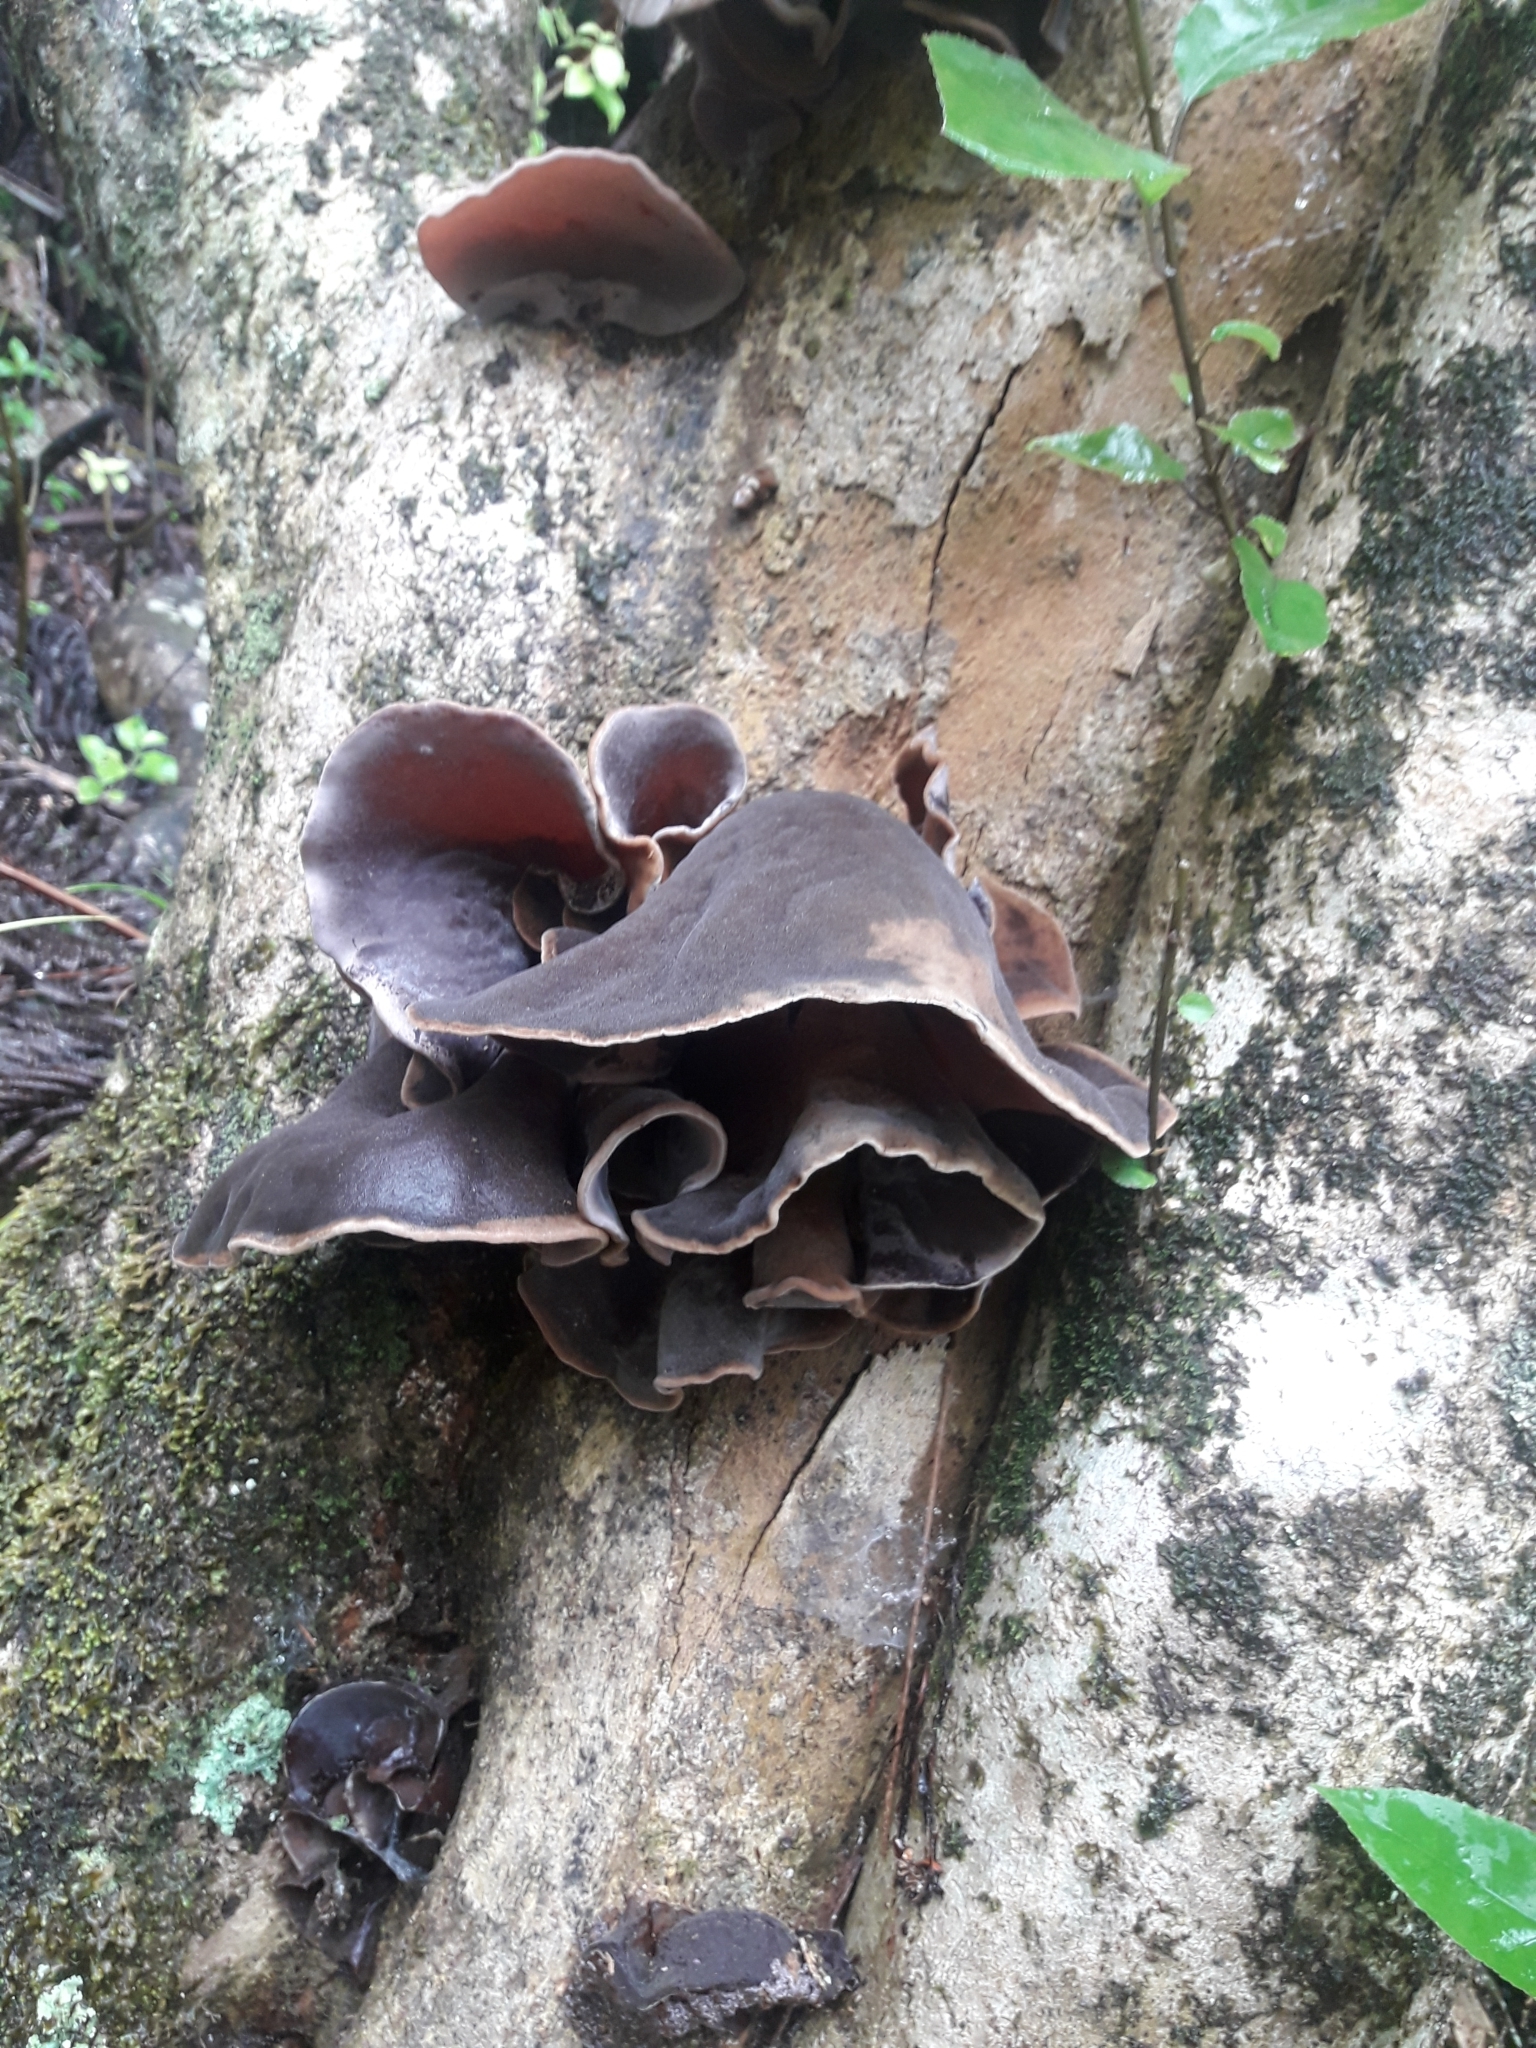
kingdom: Fungi
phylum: Basidiomycota
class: Agaricomycetes
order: Auriculariales
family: Auriculariaceae
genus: Auricularia
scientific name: Auricularia cornea
